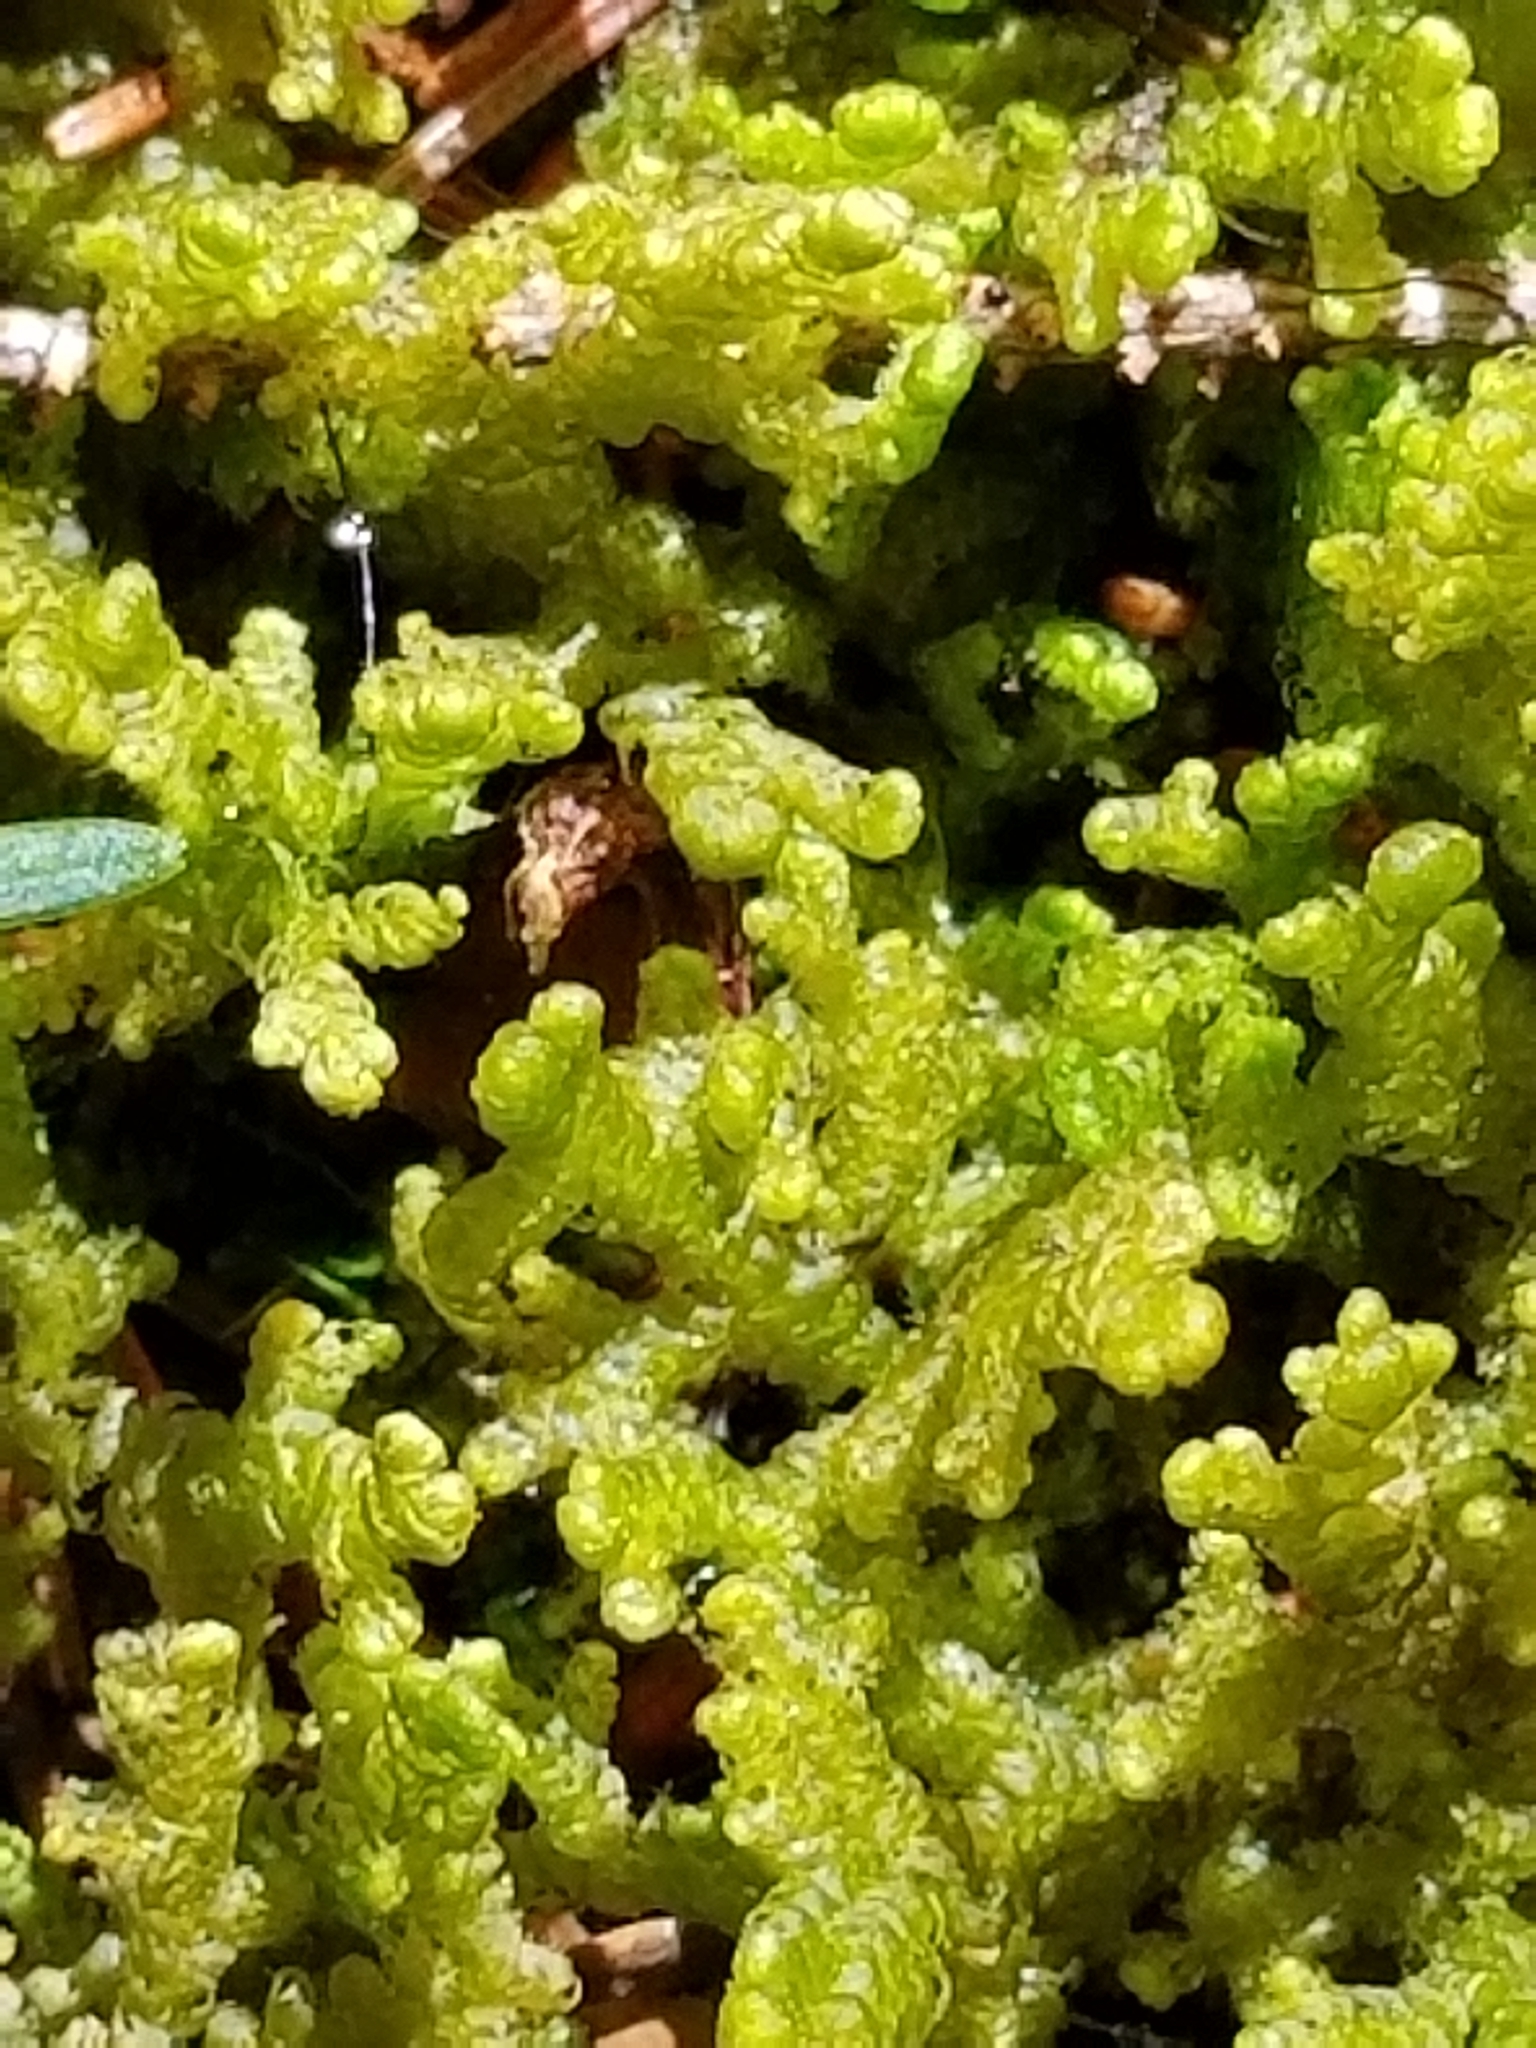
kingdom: Plantae
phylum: Marchantiophyta
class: Jungermanniopsida
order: Ptilidiales
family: Ptilidiaceae
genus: Ptilidium
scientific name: Ptilidium ciliare
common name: Ciliate fringewort
